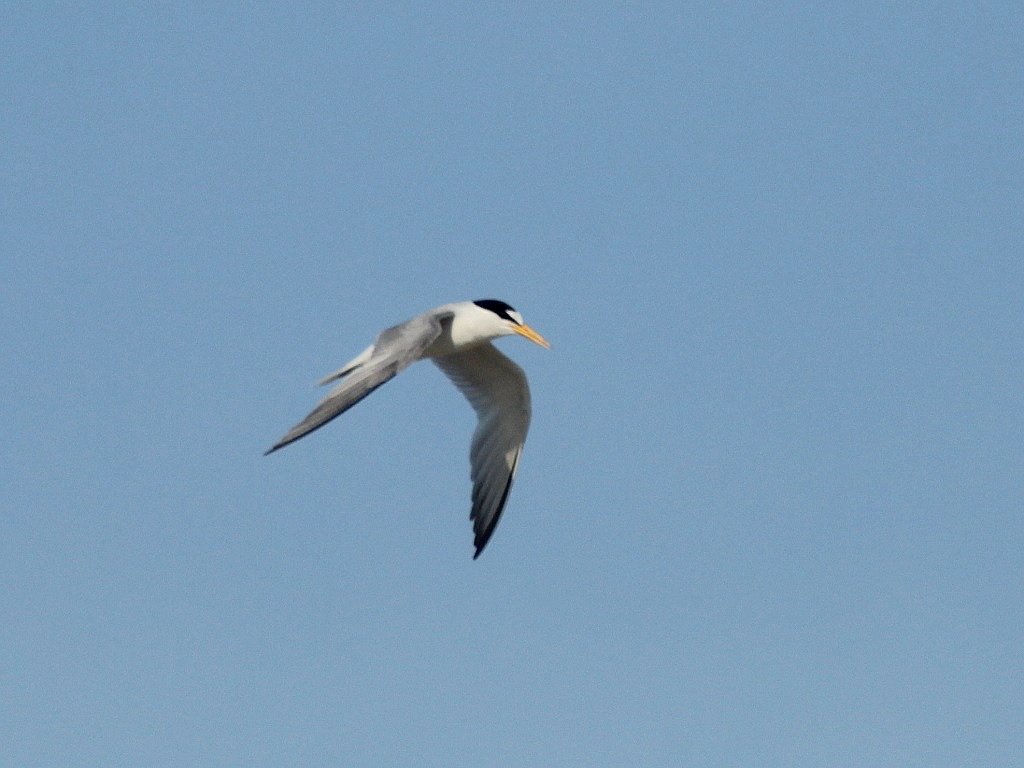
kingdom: Animalia
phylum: Chordata
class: Aves
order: Charadriiformes
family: Laridae
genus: Sternula
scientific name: Sternula albifrons
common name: Little tern
